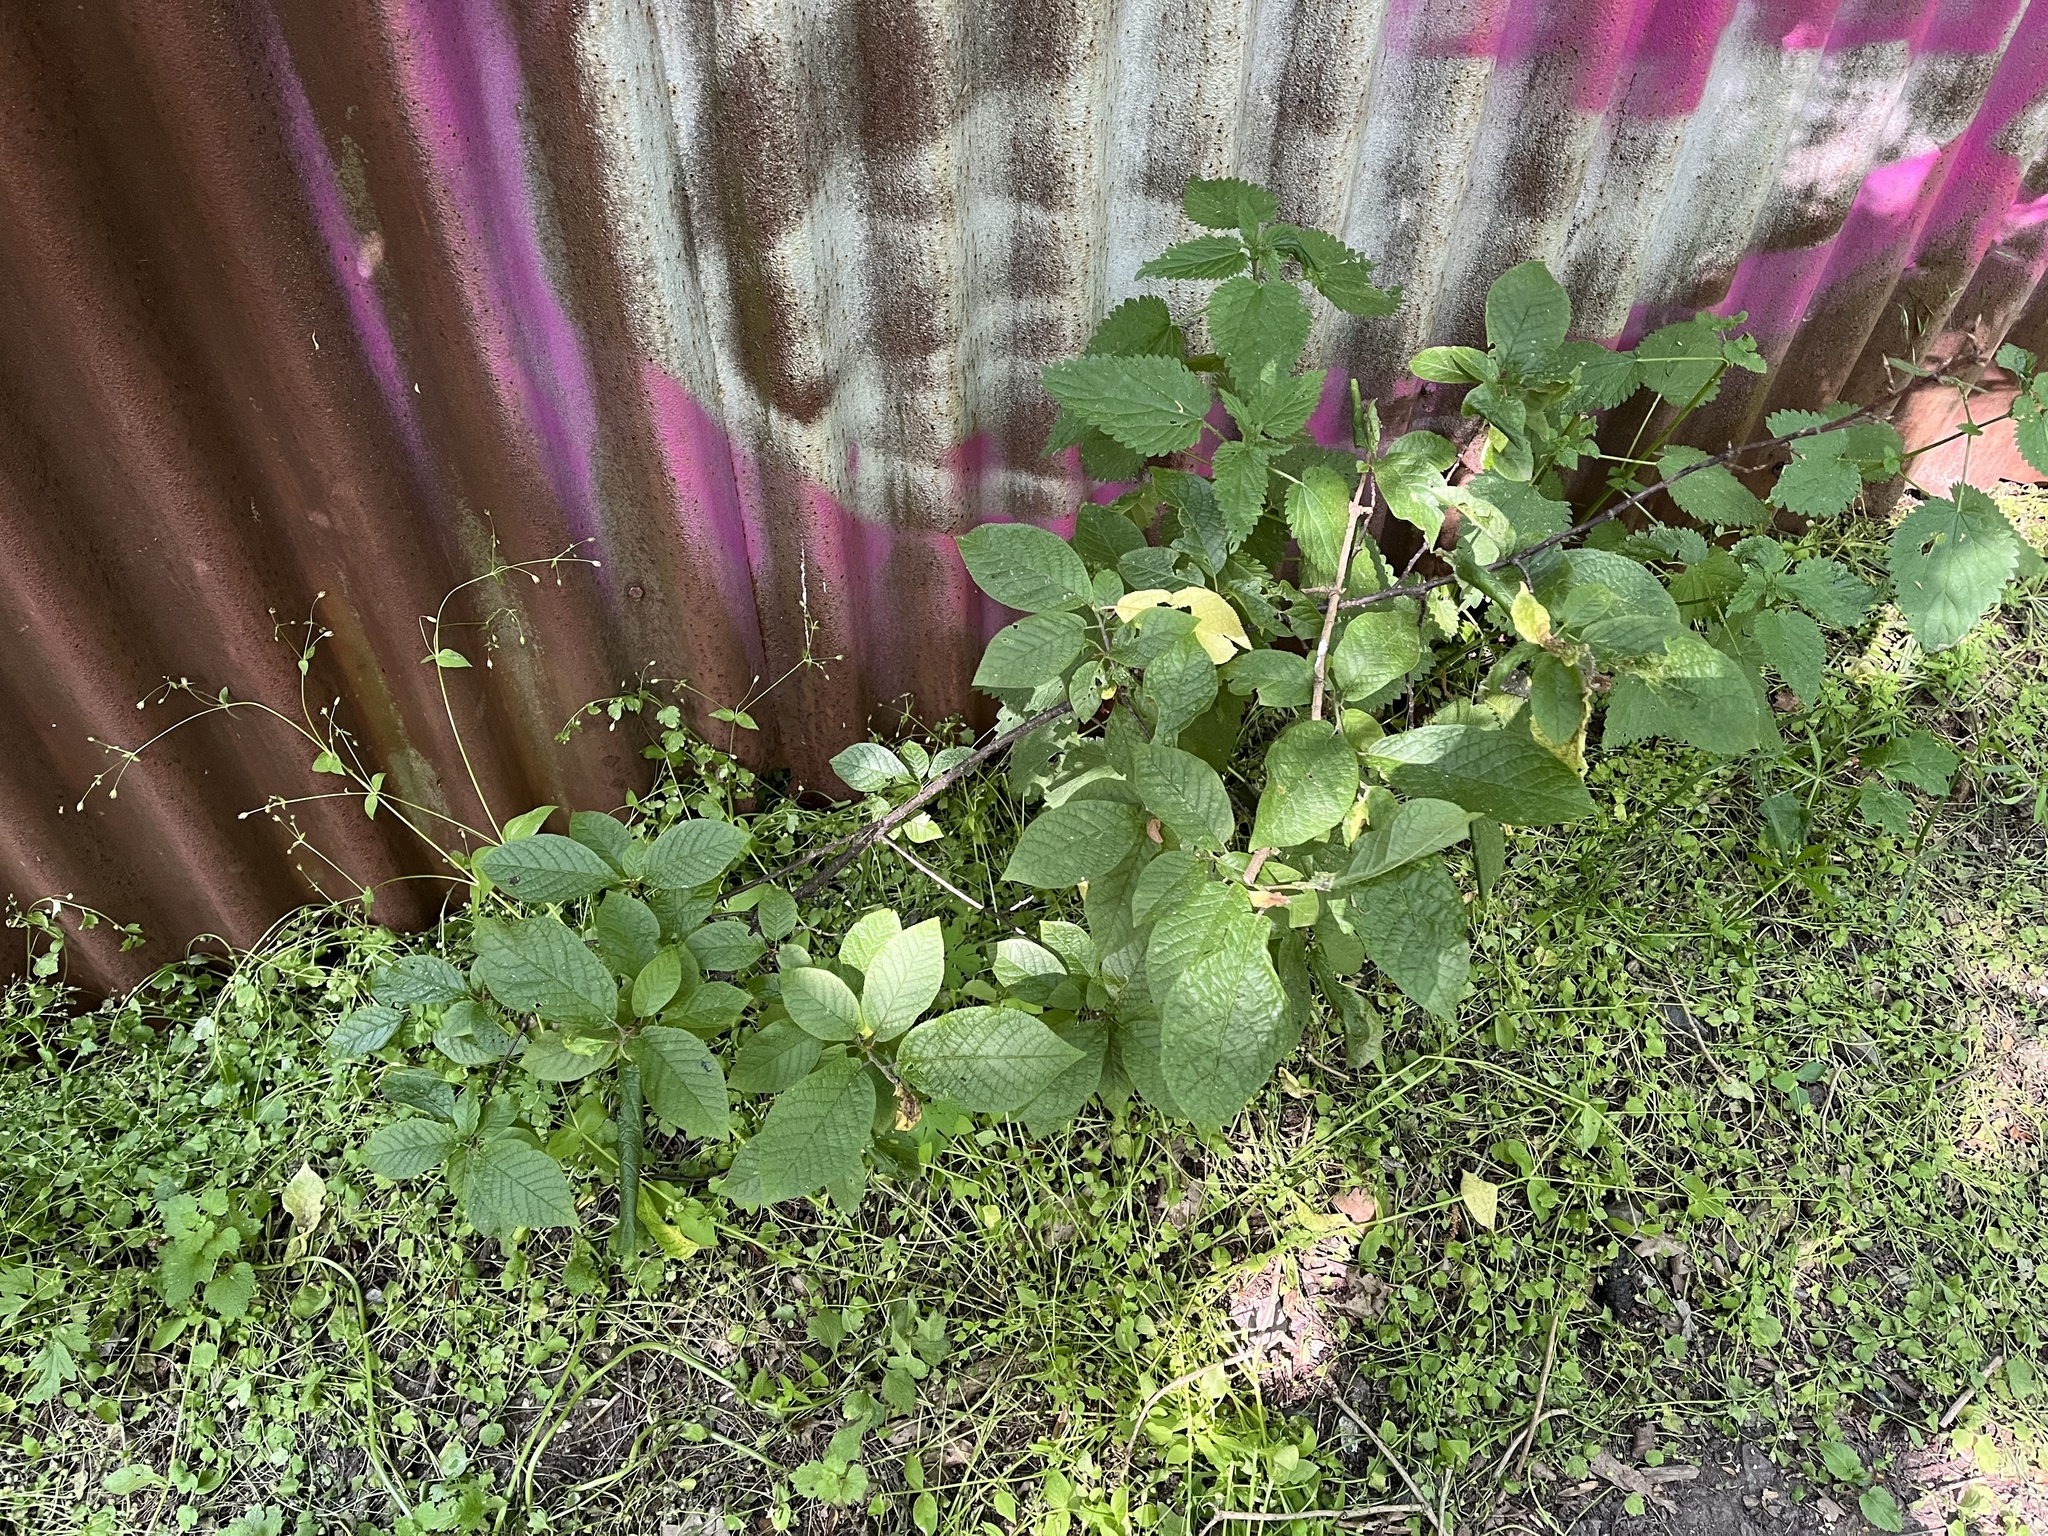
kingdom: Plantae
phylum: Tracheophyta
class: Magnoliopsida
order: Rosales
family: Rosaceae
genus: Prunus
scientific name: Prunus padus
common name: Bird cherry
